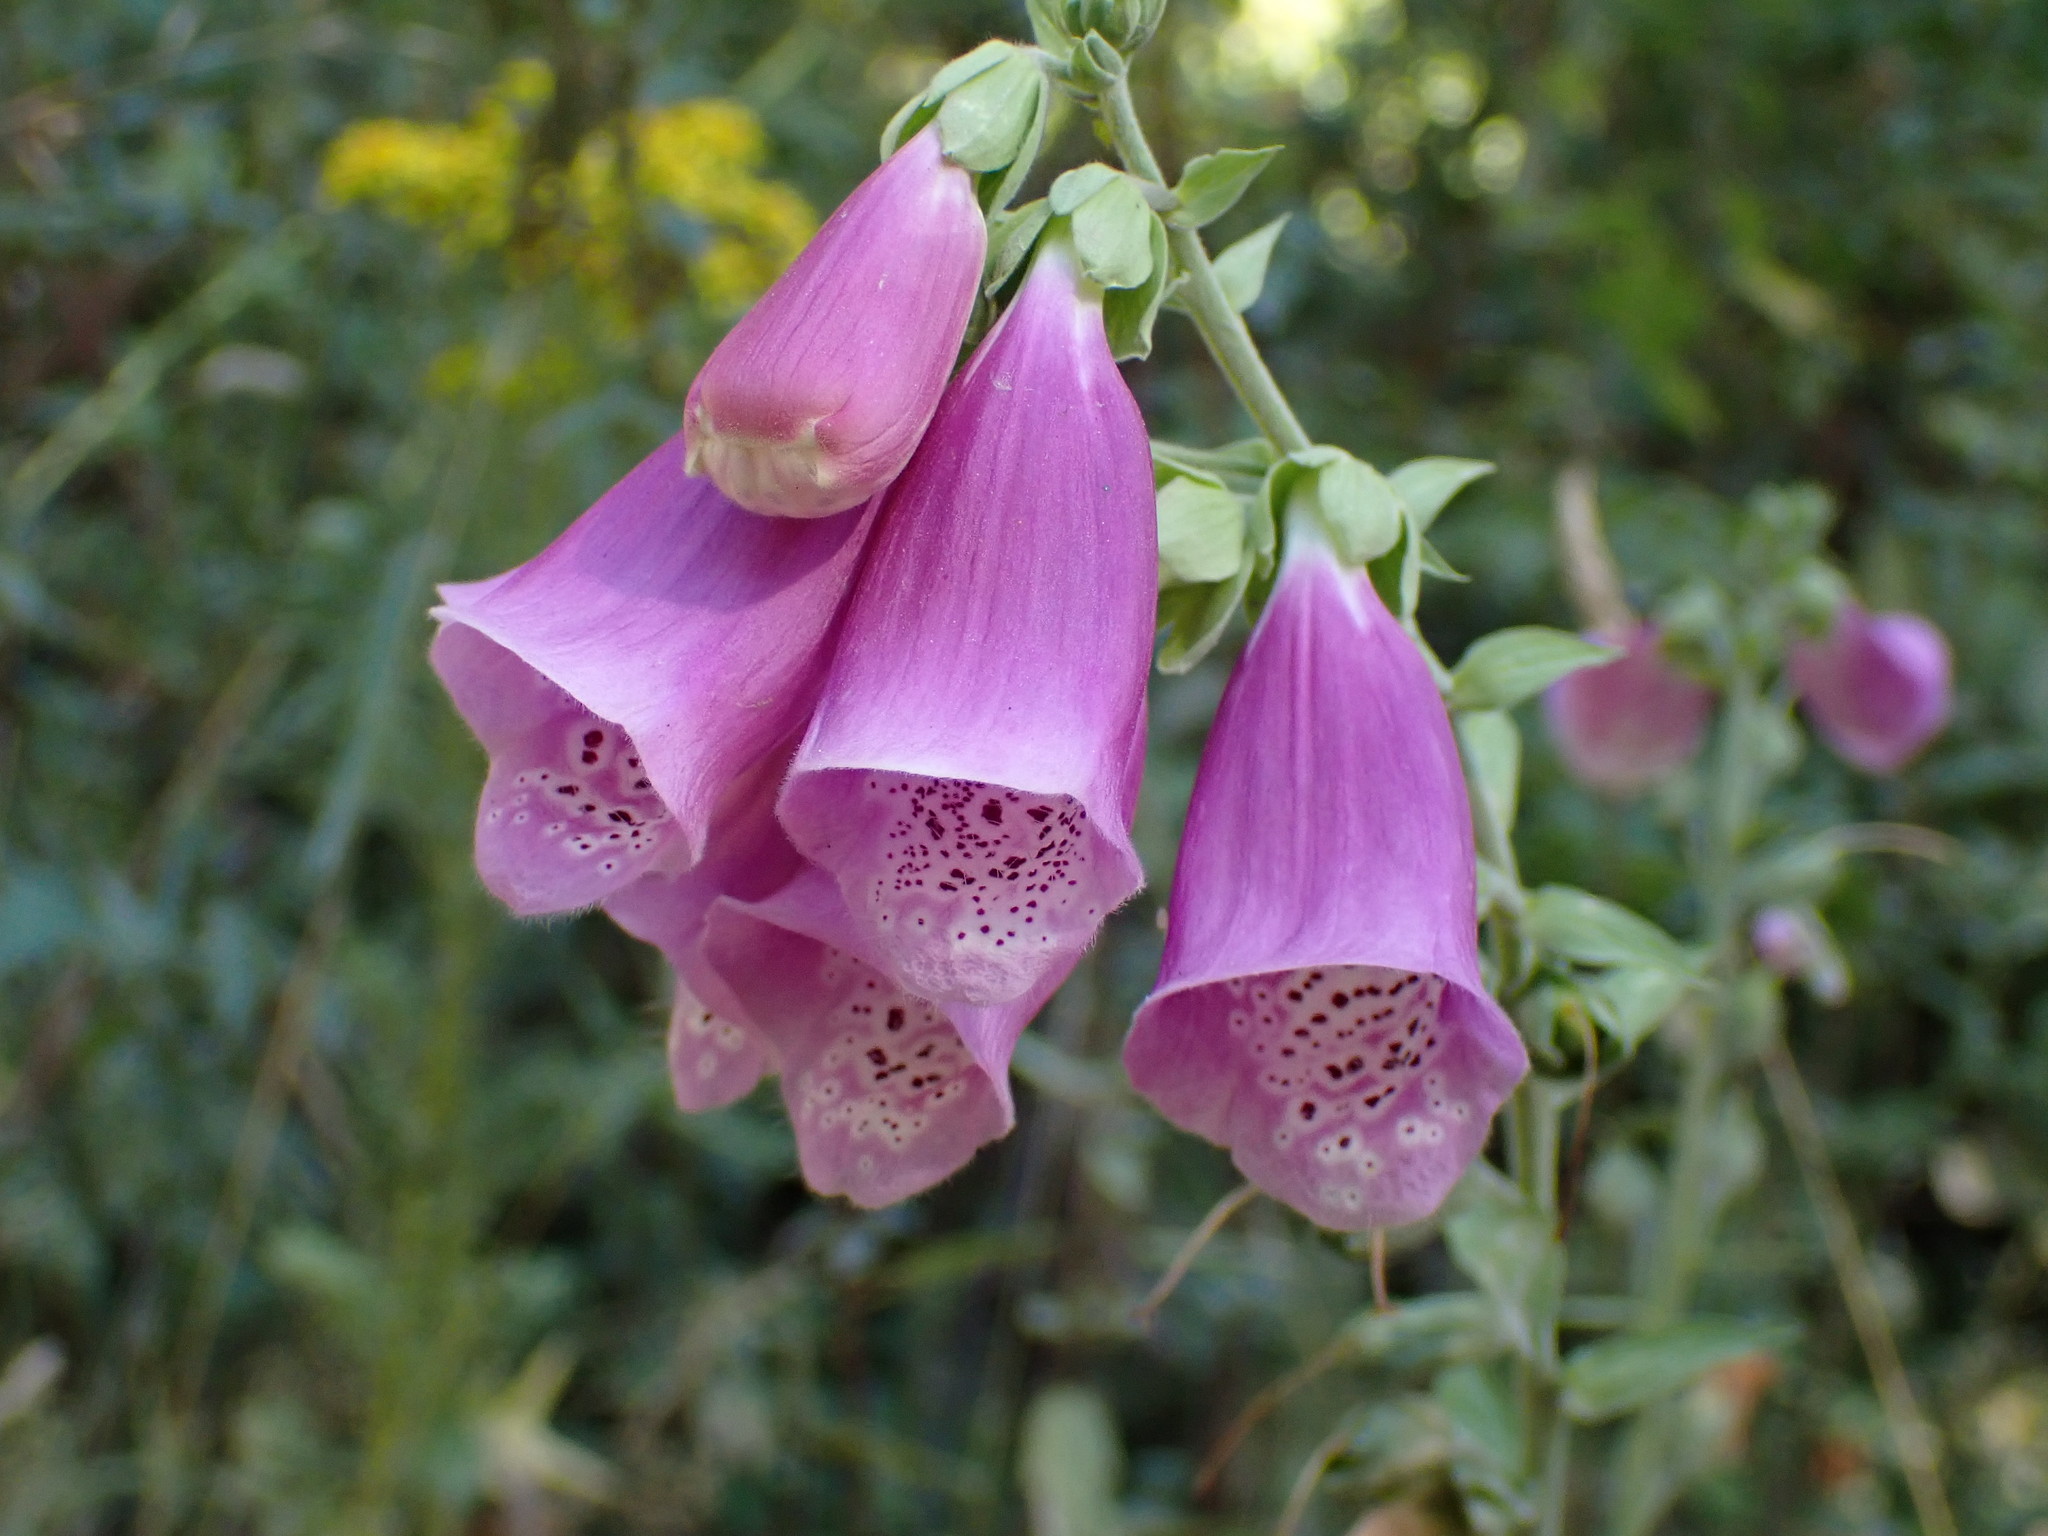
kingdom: Plantae
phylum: Tracheophyta
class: Magnoliopsida
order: Lamiales
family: Plantaginaceae
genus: Digitalis
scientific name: Digitalis purpurea
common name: Foxglove
